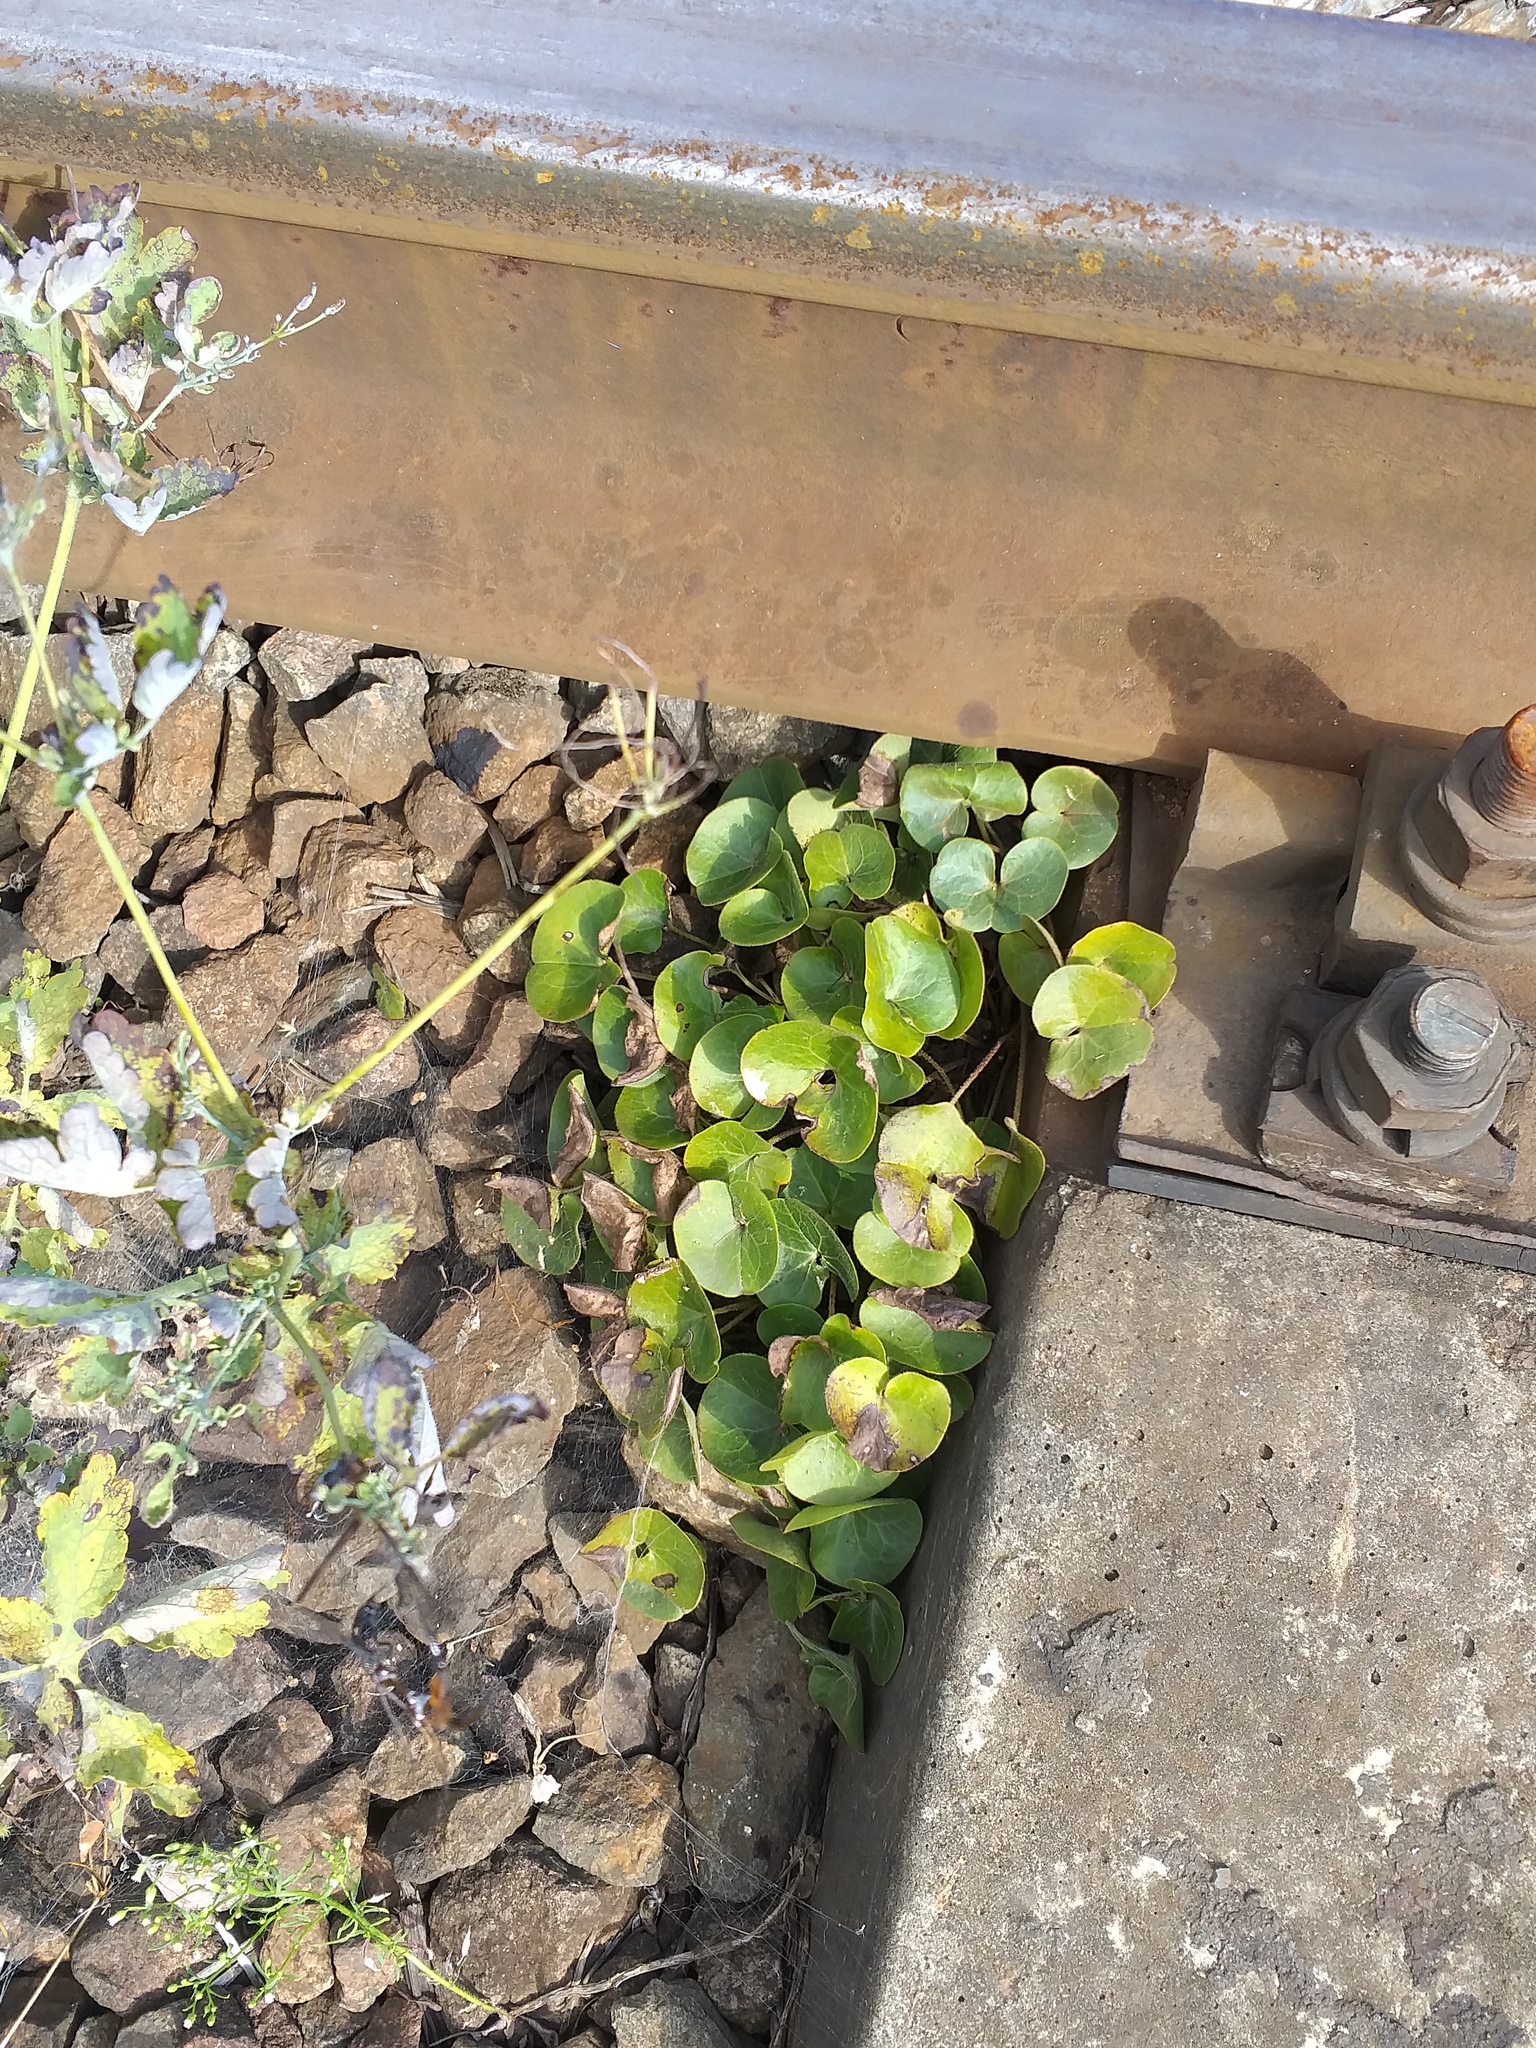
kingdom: Plantae
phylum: Tracheophyta
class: Magnoliopsida
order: Piperales
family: Aristolochiaceae
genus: Asarum
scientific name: Asarum europaeum
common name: Asarabacca
